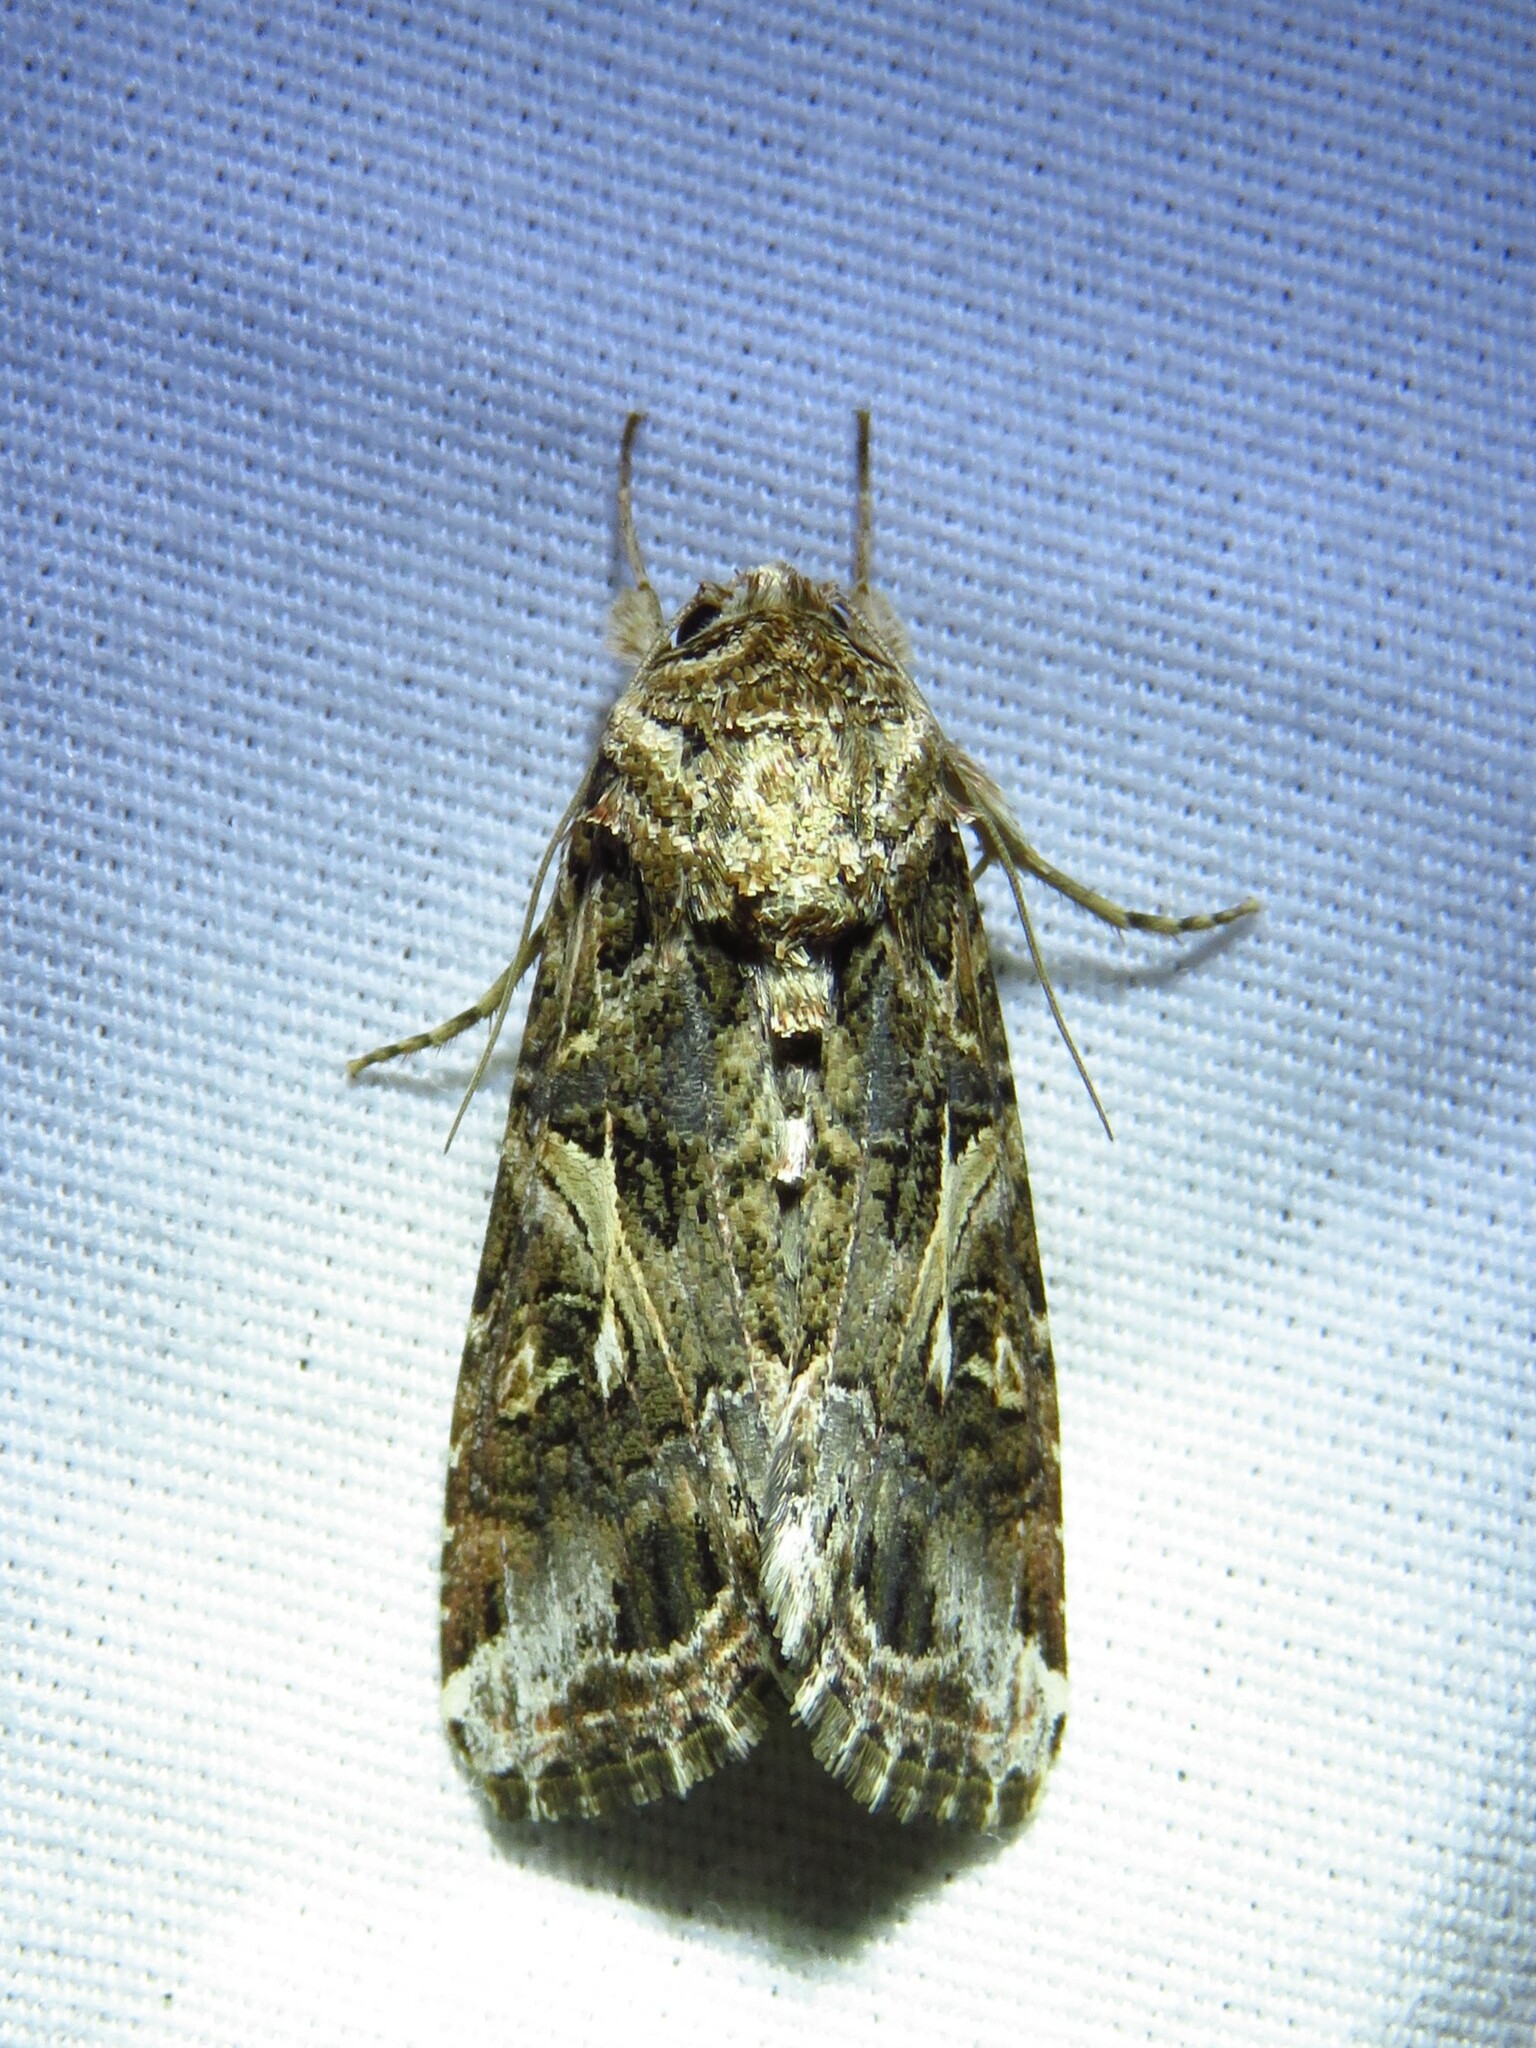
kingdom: Animalia
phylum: Arthropoda
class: Insecta
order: Lepidoptera
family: Noctuidae
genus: Spodoptera
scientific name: Spodoptera ornithogalli
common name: Yellow-striped armyworm
